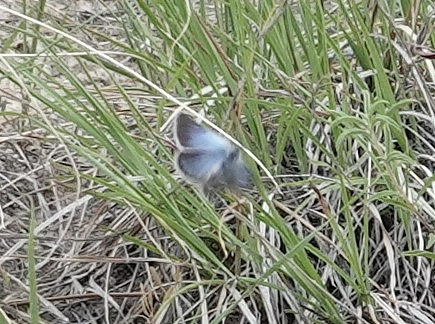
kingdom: Animalia
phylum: Arthropoda
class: Insecta
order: Lepidoptera
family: Lycaenidae
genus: Glaucopsyche
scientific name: Glaucopsyche lygdamus
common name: Silvery blue
